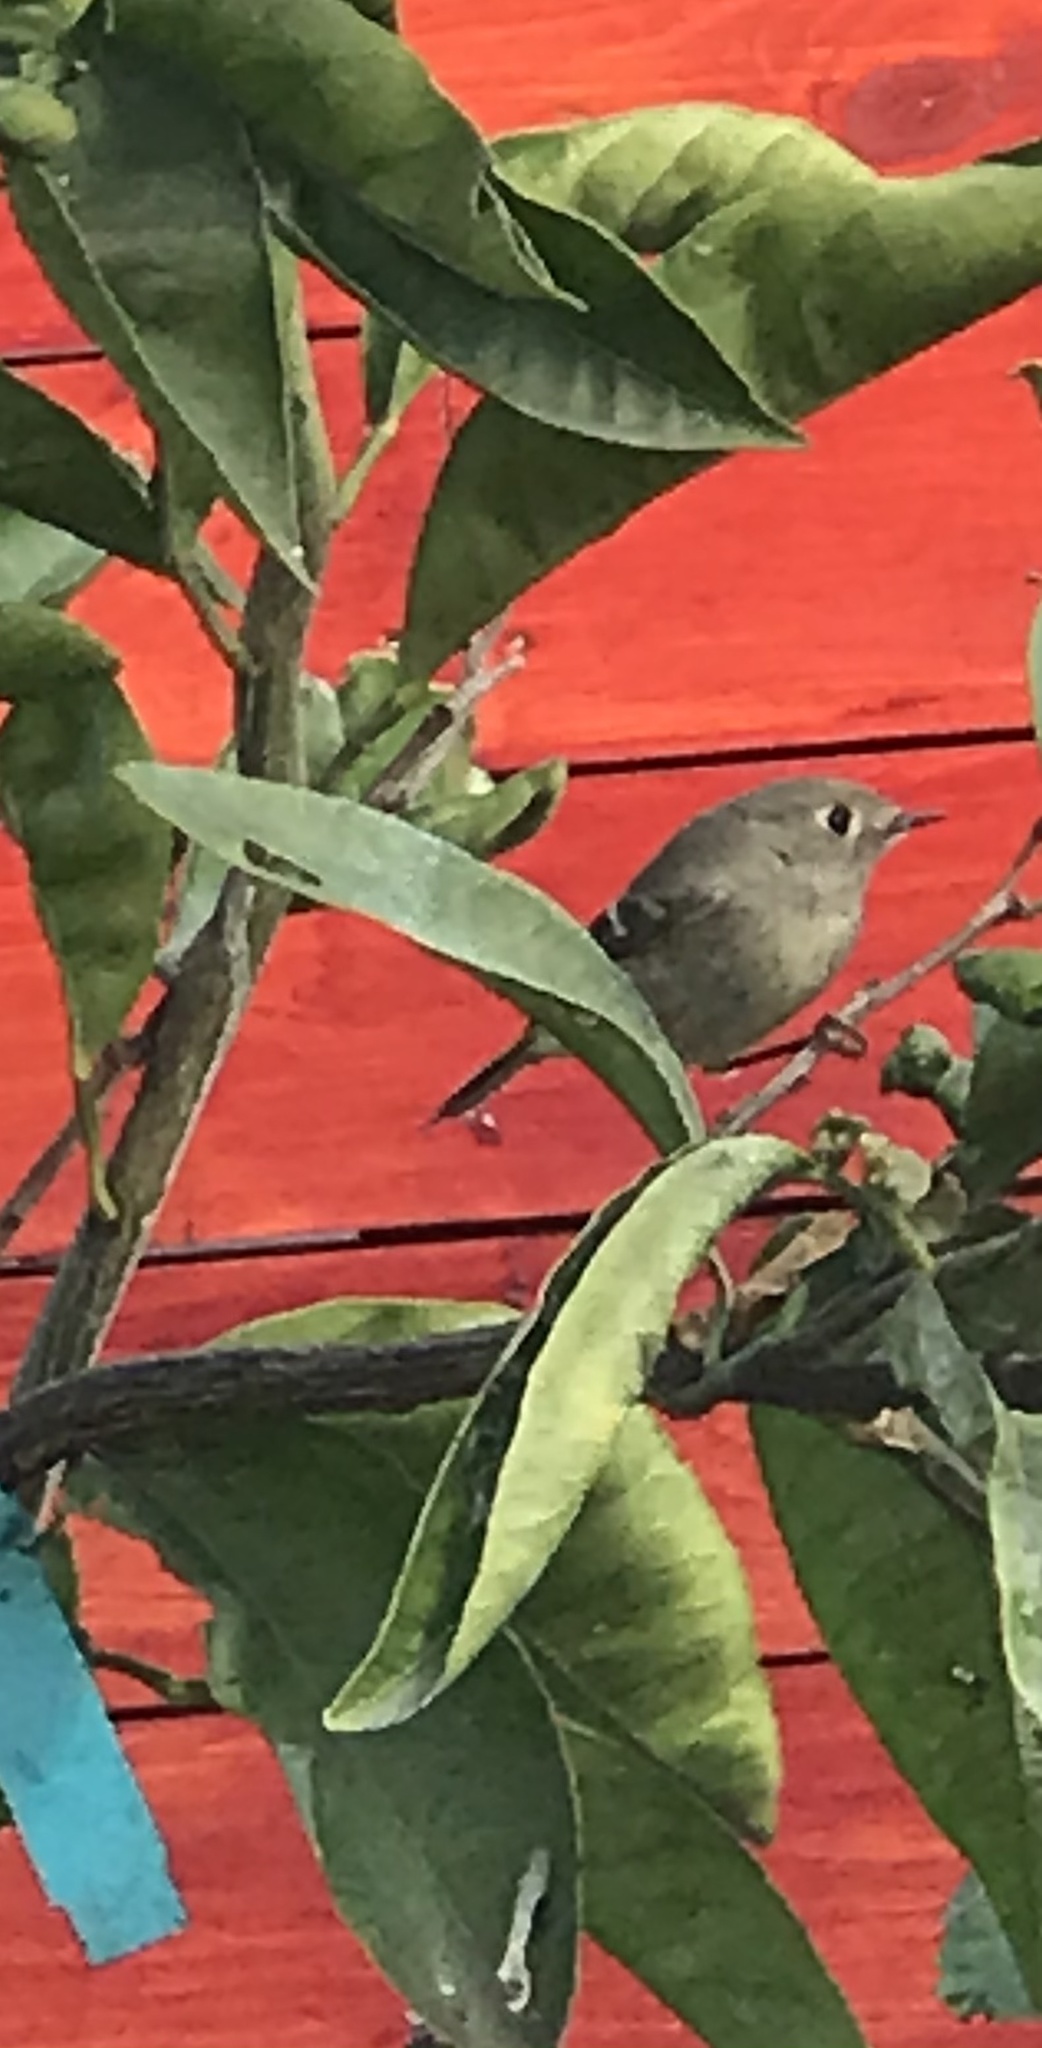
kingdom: Animalia
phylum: Chordata
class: Aves
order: Passeriformes
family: Regulidae
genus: Regulus
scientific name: Regulus calendula
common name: Ruby-crowned kinglet
